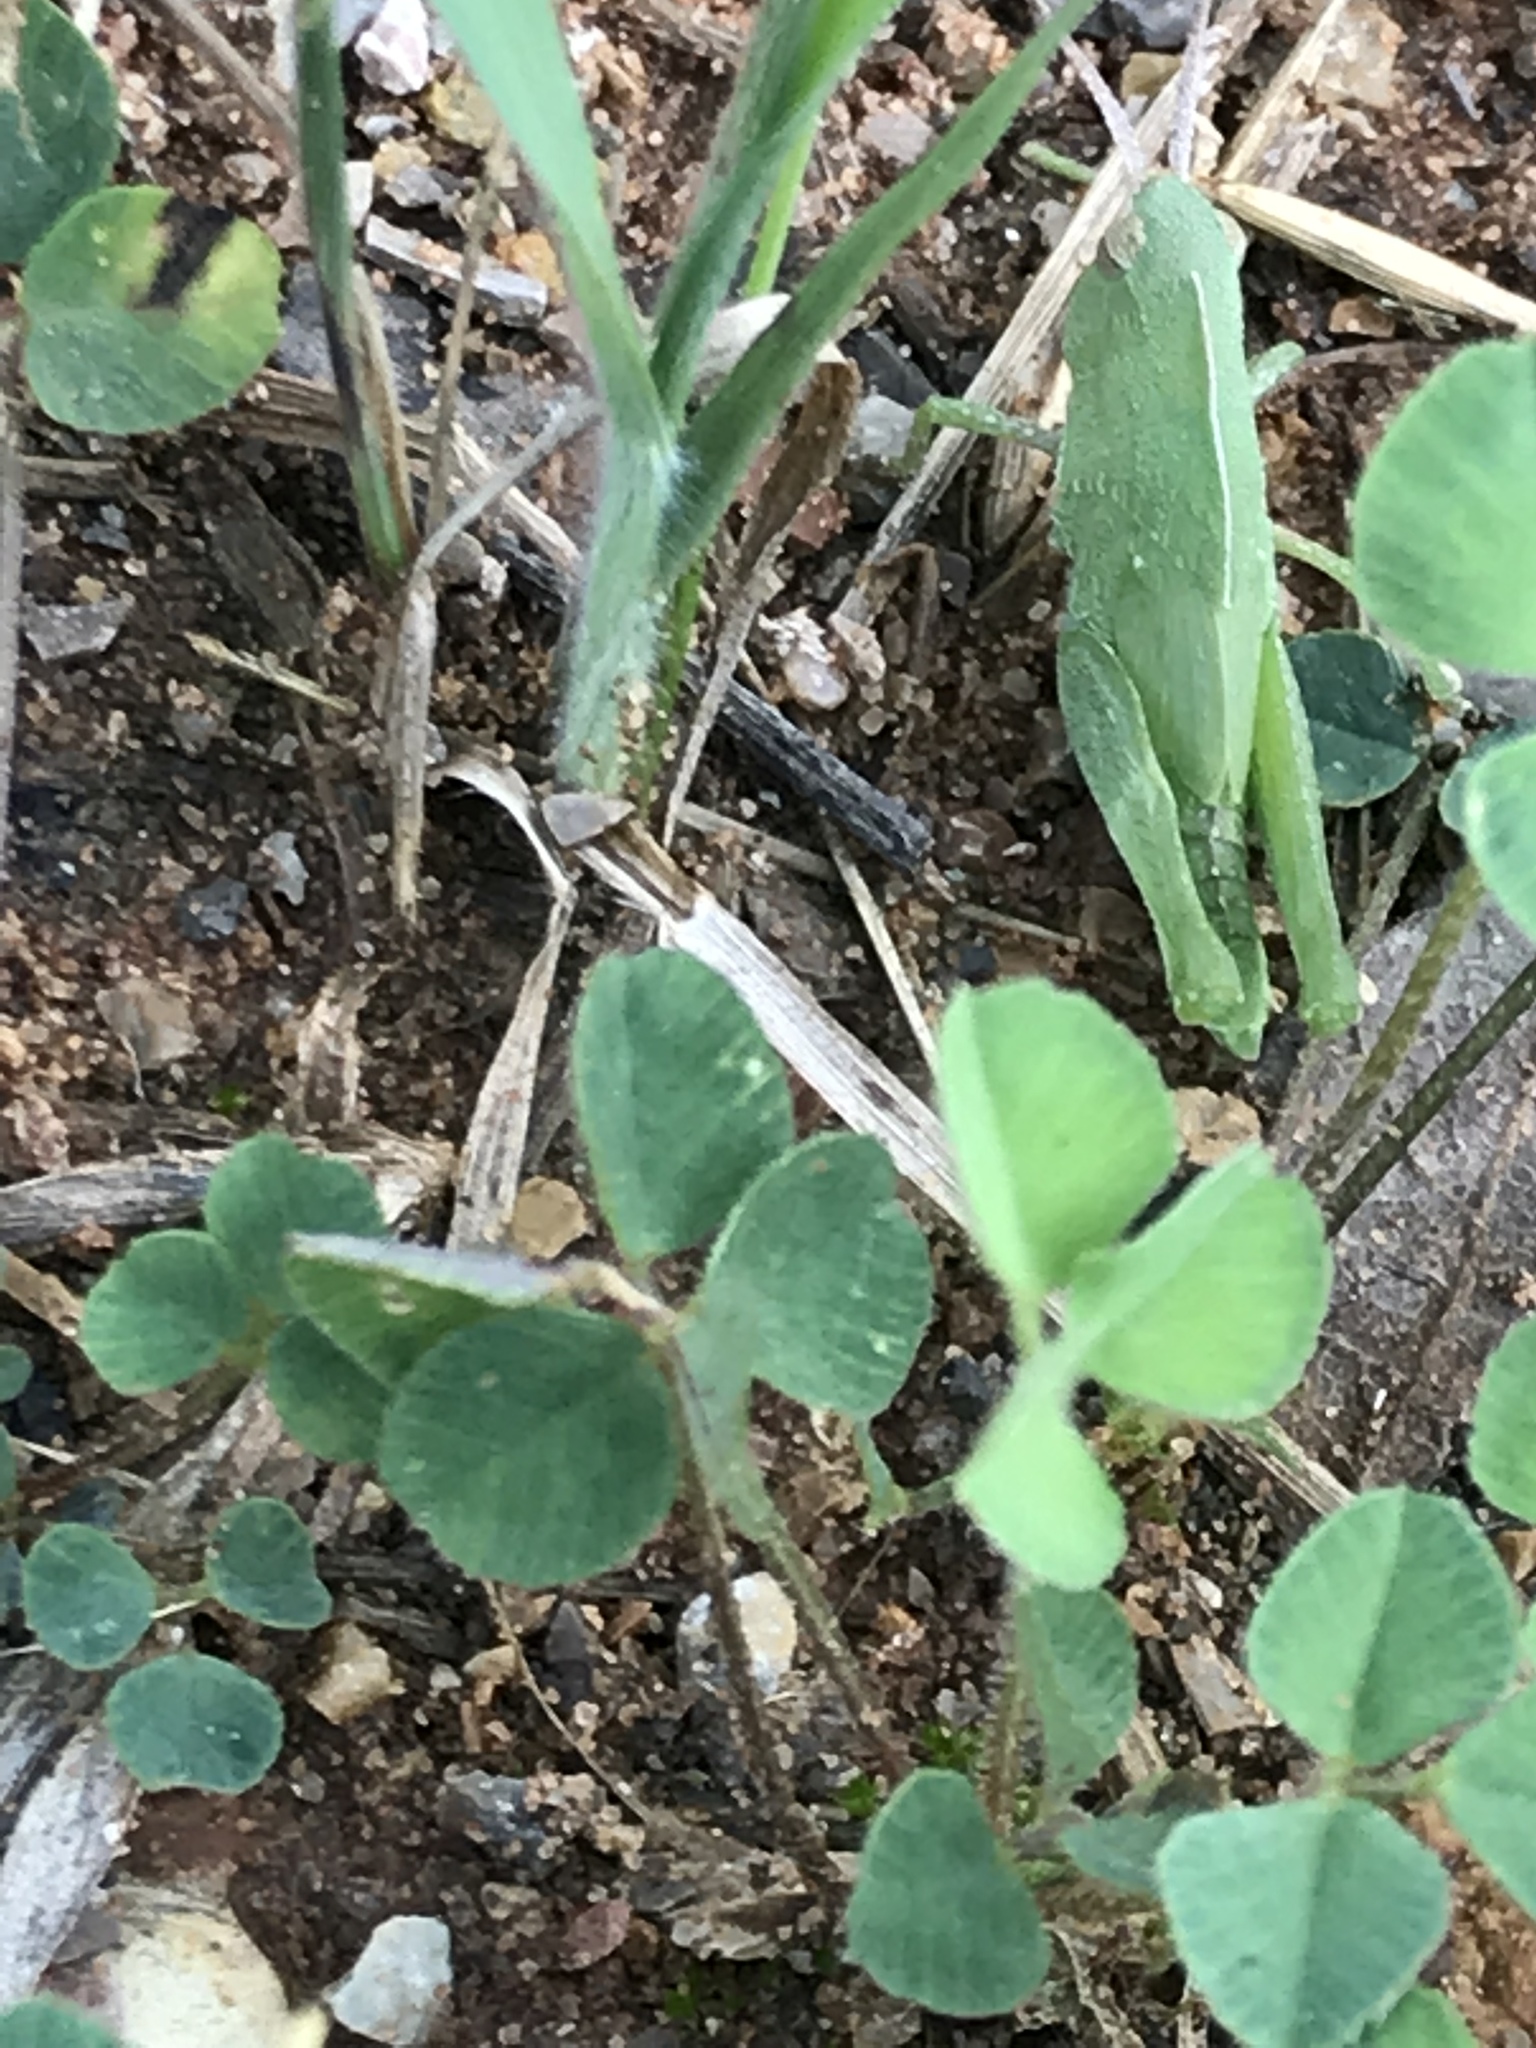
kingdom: Animalia
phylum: Arthropoda
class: Insecta
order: Orthoptera
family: Acrididae
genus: Chortophaga
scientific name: Chortophaga viridifasciata
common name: Green-striped grasshopper
